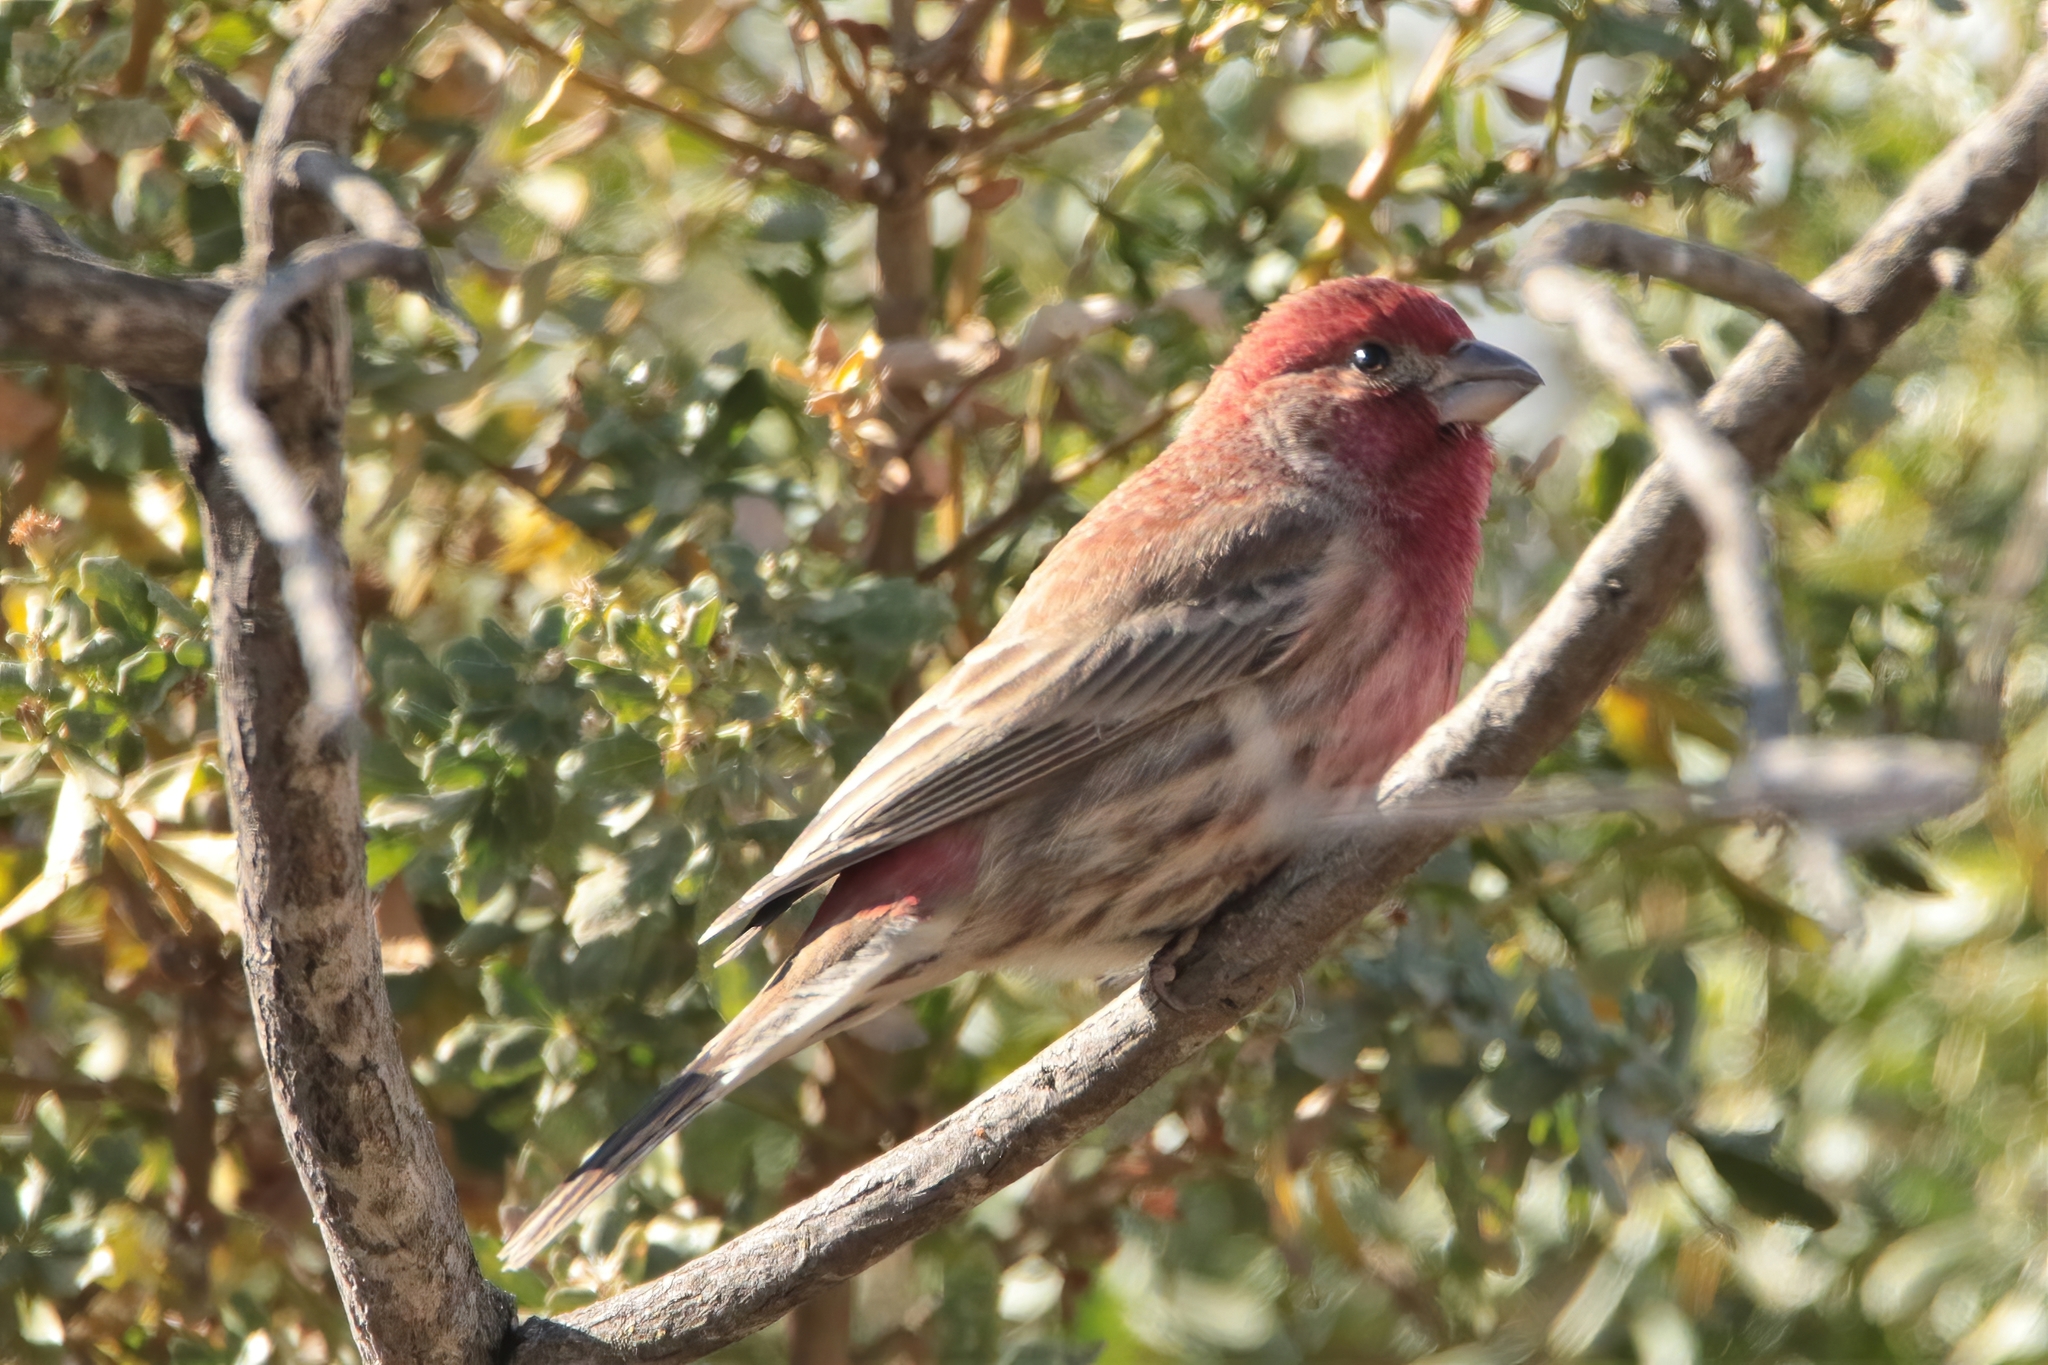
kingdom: Animalia
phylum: Chordata
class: Aves
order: Passeriformes
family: Fringillidae
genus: Haemorhous
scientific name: Haemorhous mexicanus
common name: House finch
